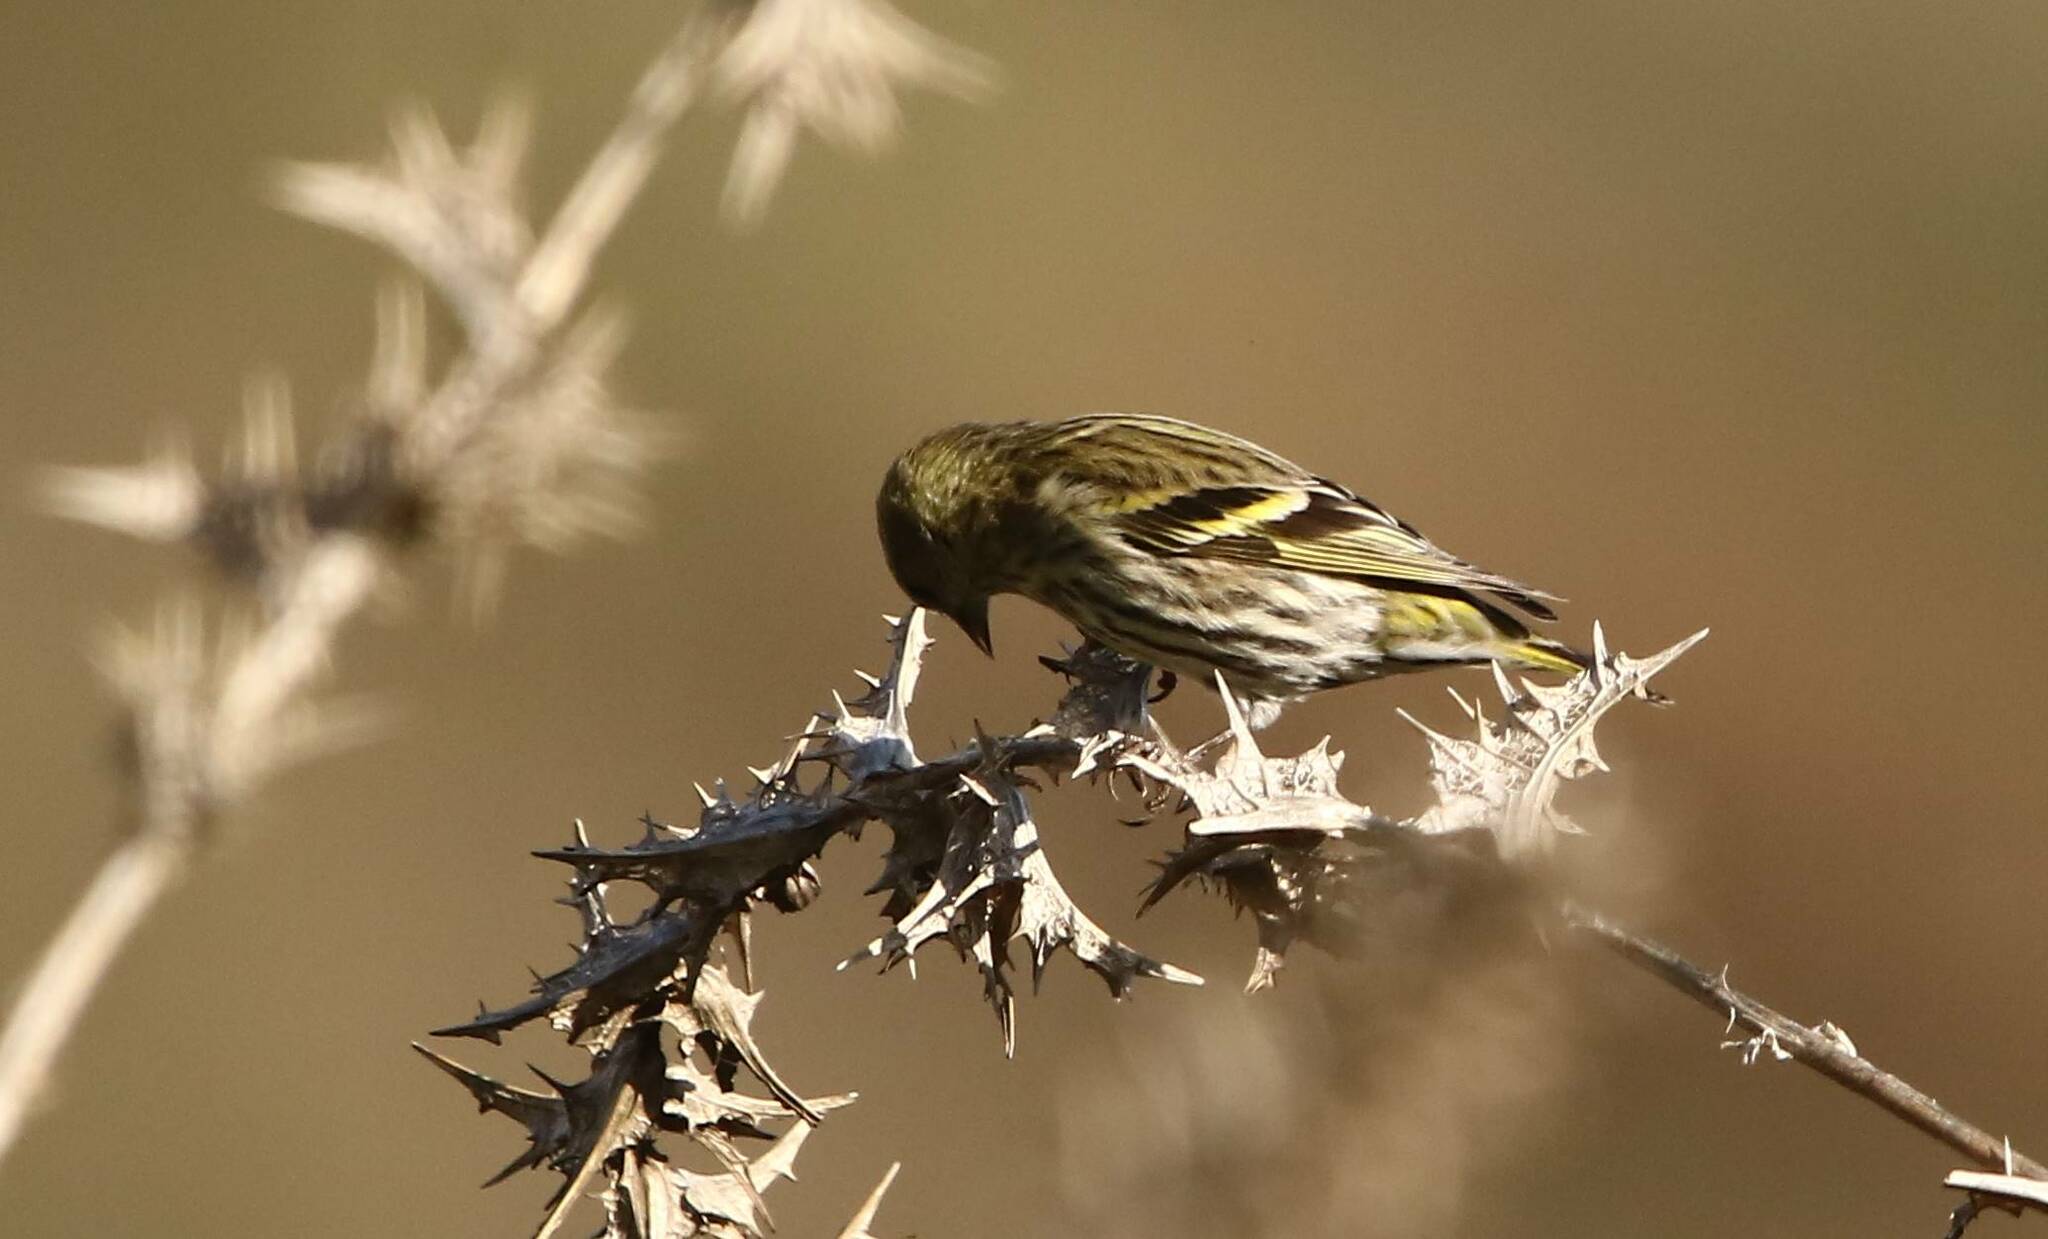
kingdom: Animalia
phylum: Chordata
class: Aves
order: Passeriformes
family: Fringillidae
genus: Spinus
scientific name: Spinus spinus
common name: Eurasian siskin
